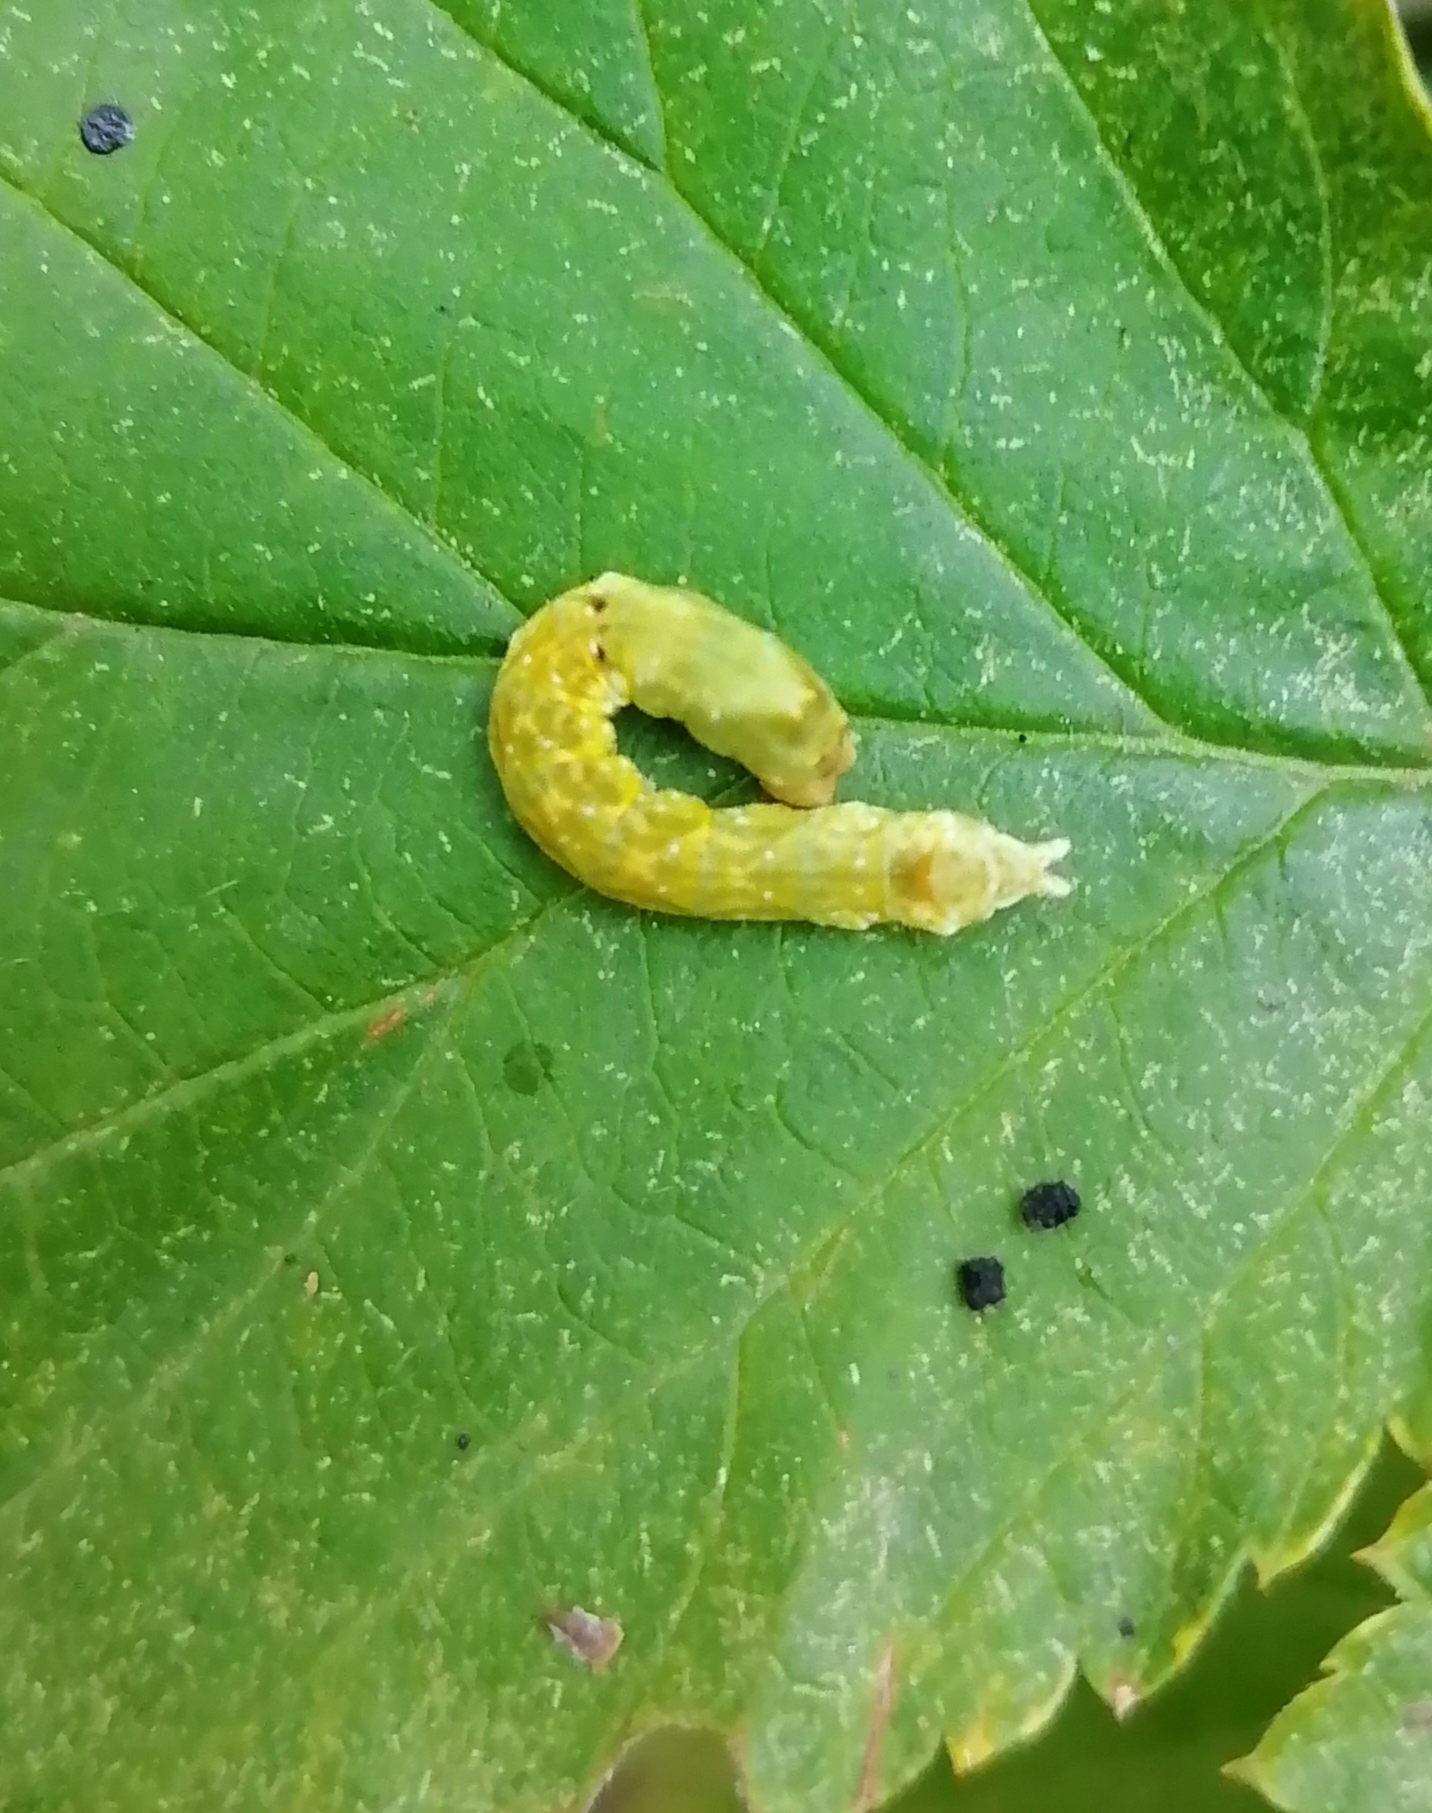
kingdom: Animalia
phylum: Arthropoda
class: Insecta
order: Lepidoptera
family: Drepanidae
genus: Thyatira
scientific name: Thyatira batis
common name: Peach blossom
